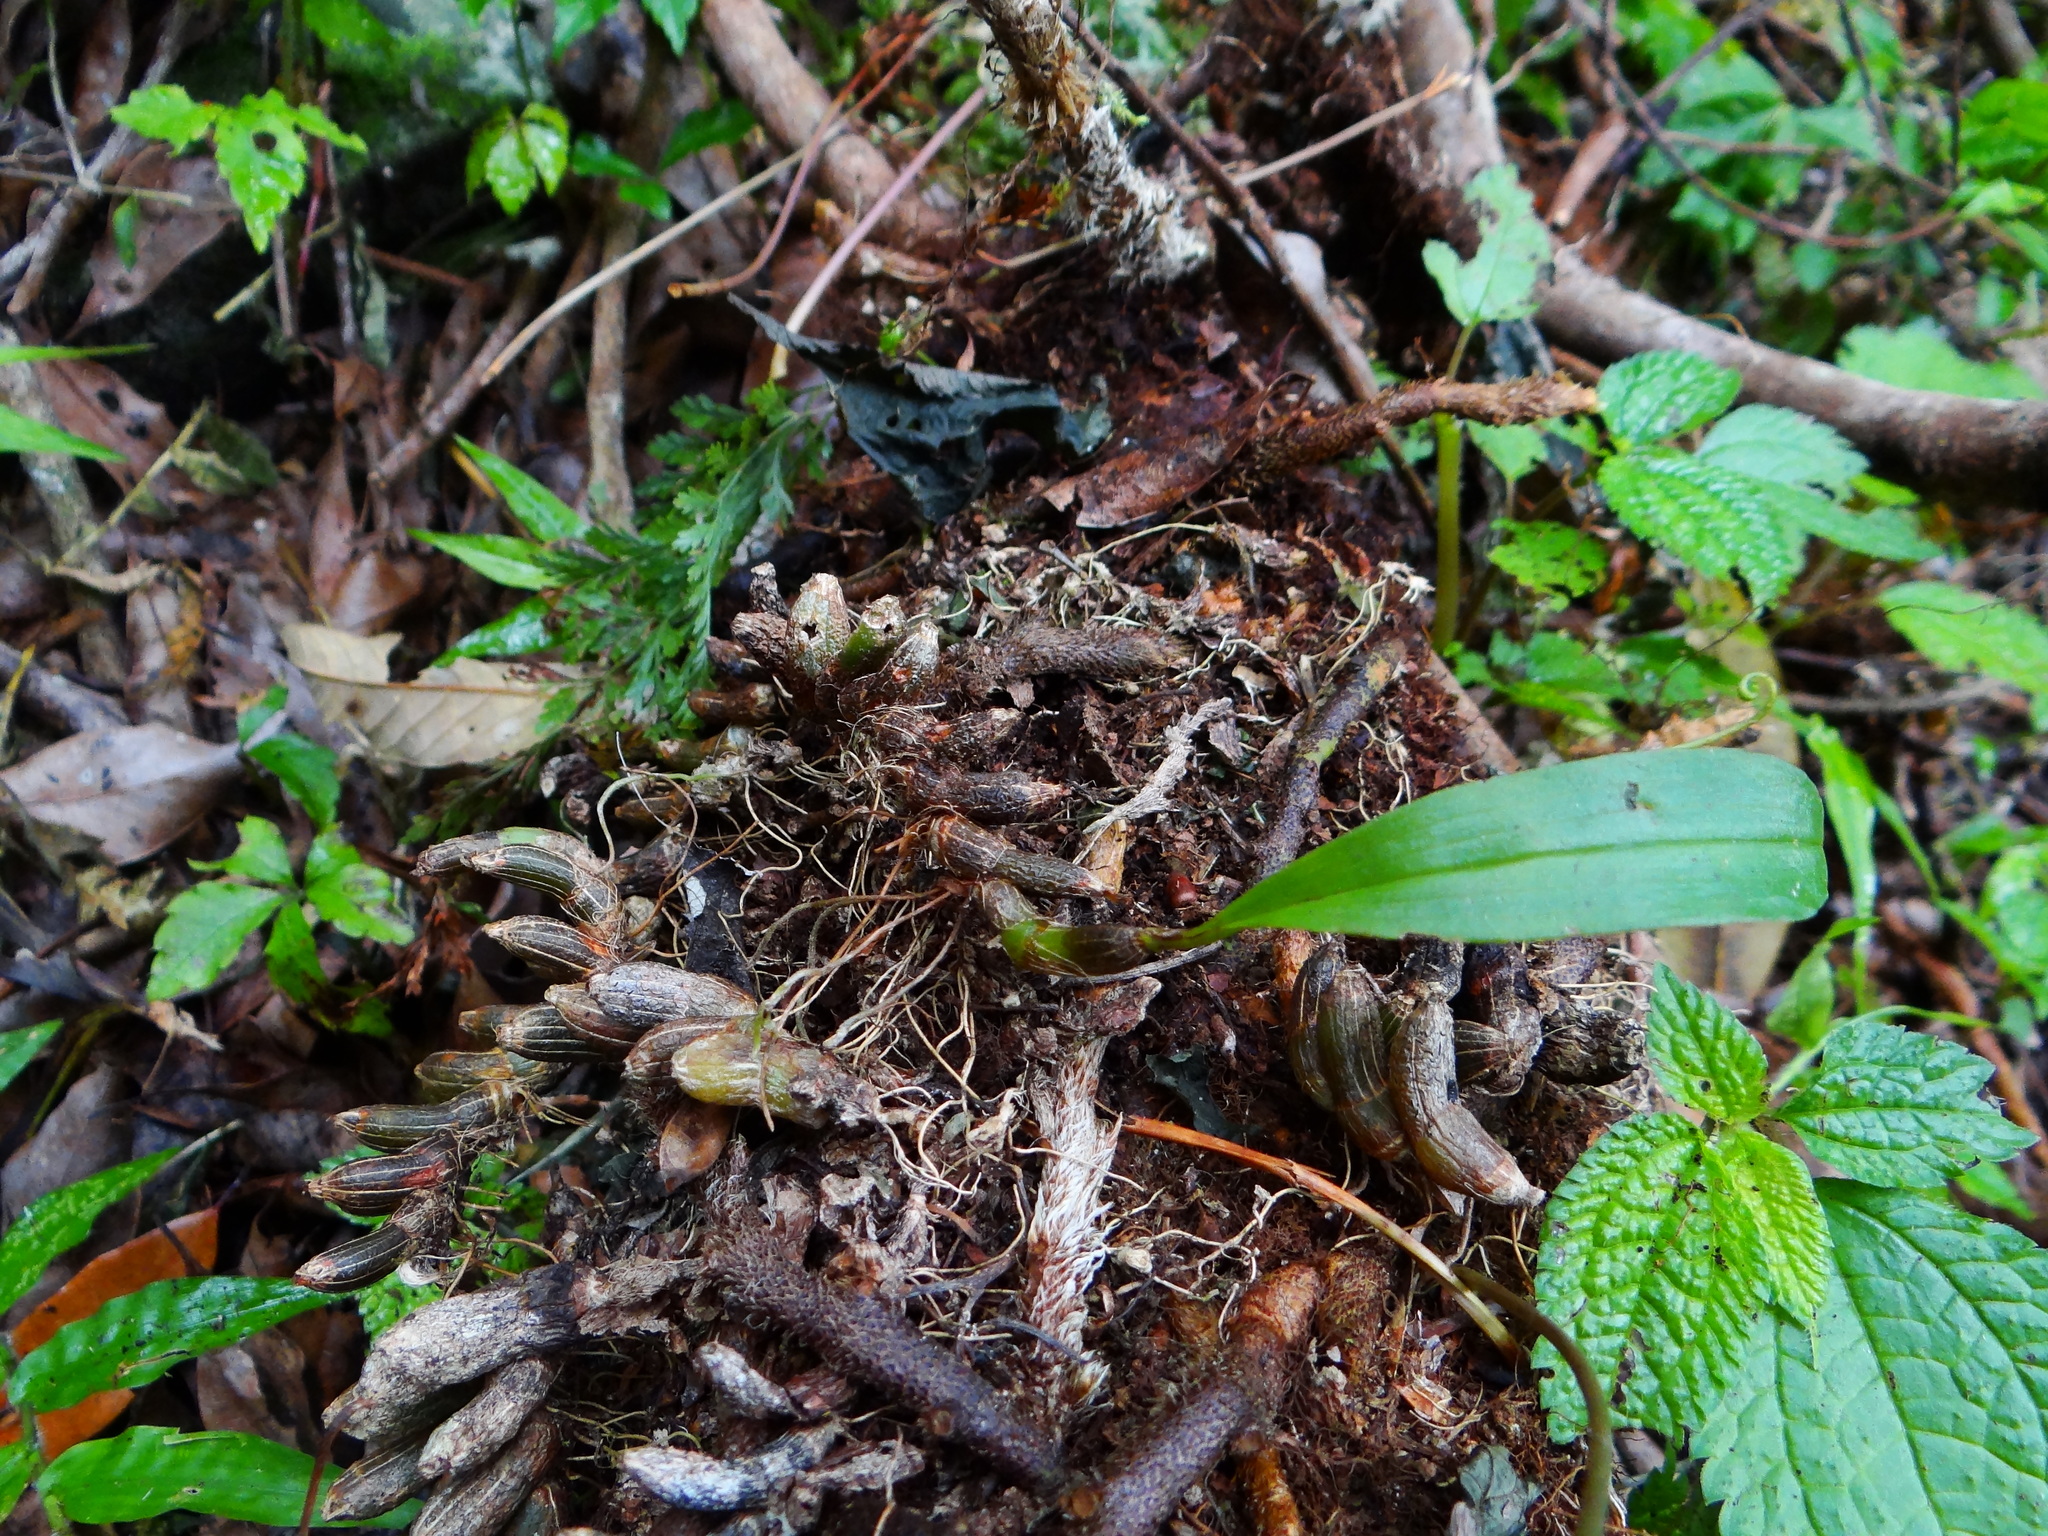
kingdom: Plantae
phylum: Tracheophyta
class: Liliopsida
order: Asparagales
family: Orchidaceae
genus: Pinalia
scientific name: Pinalia japonica
